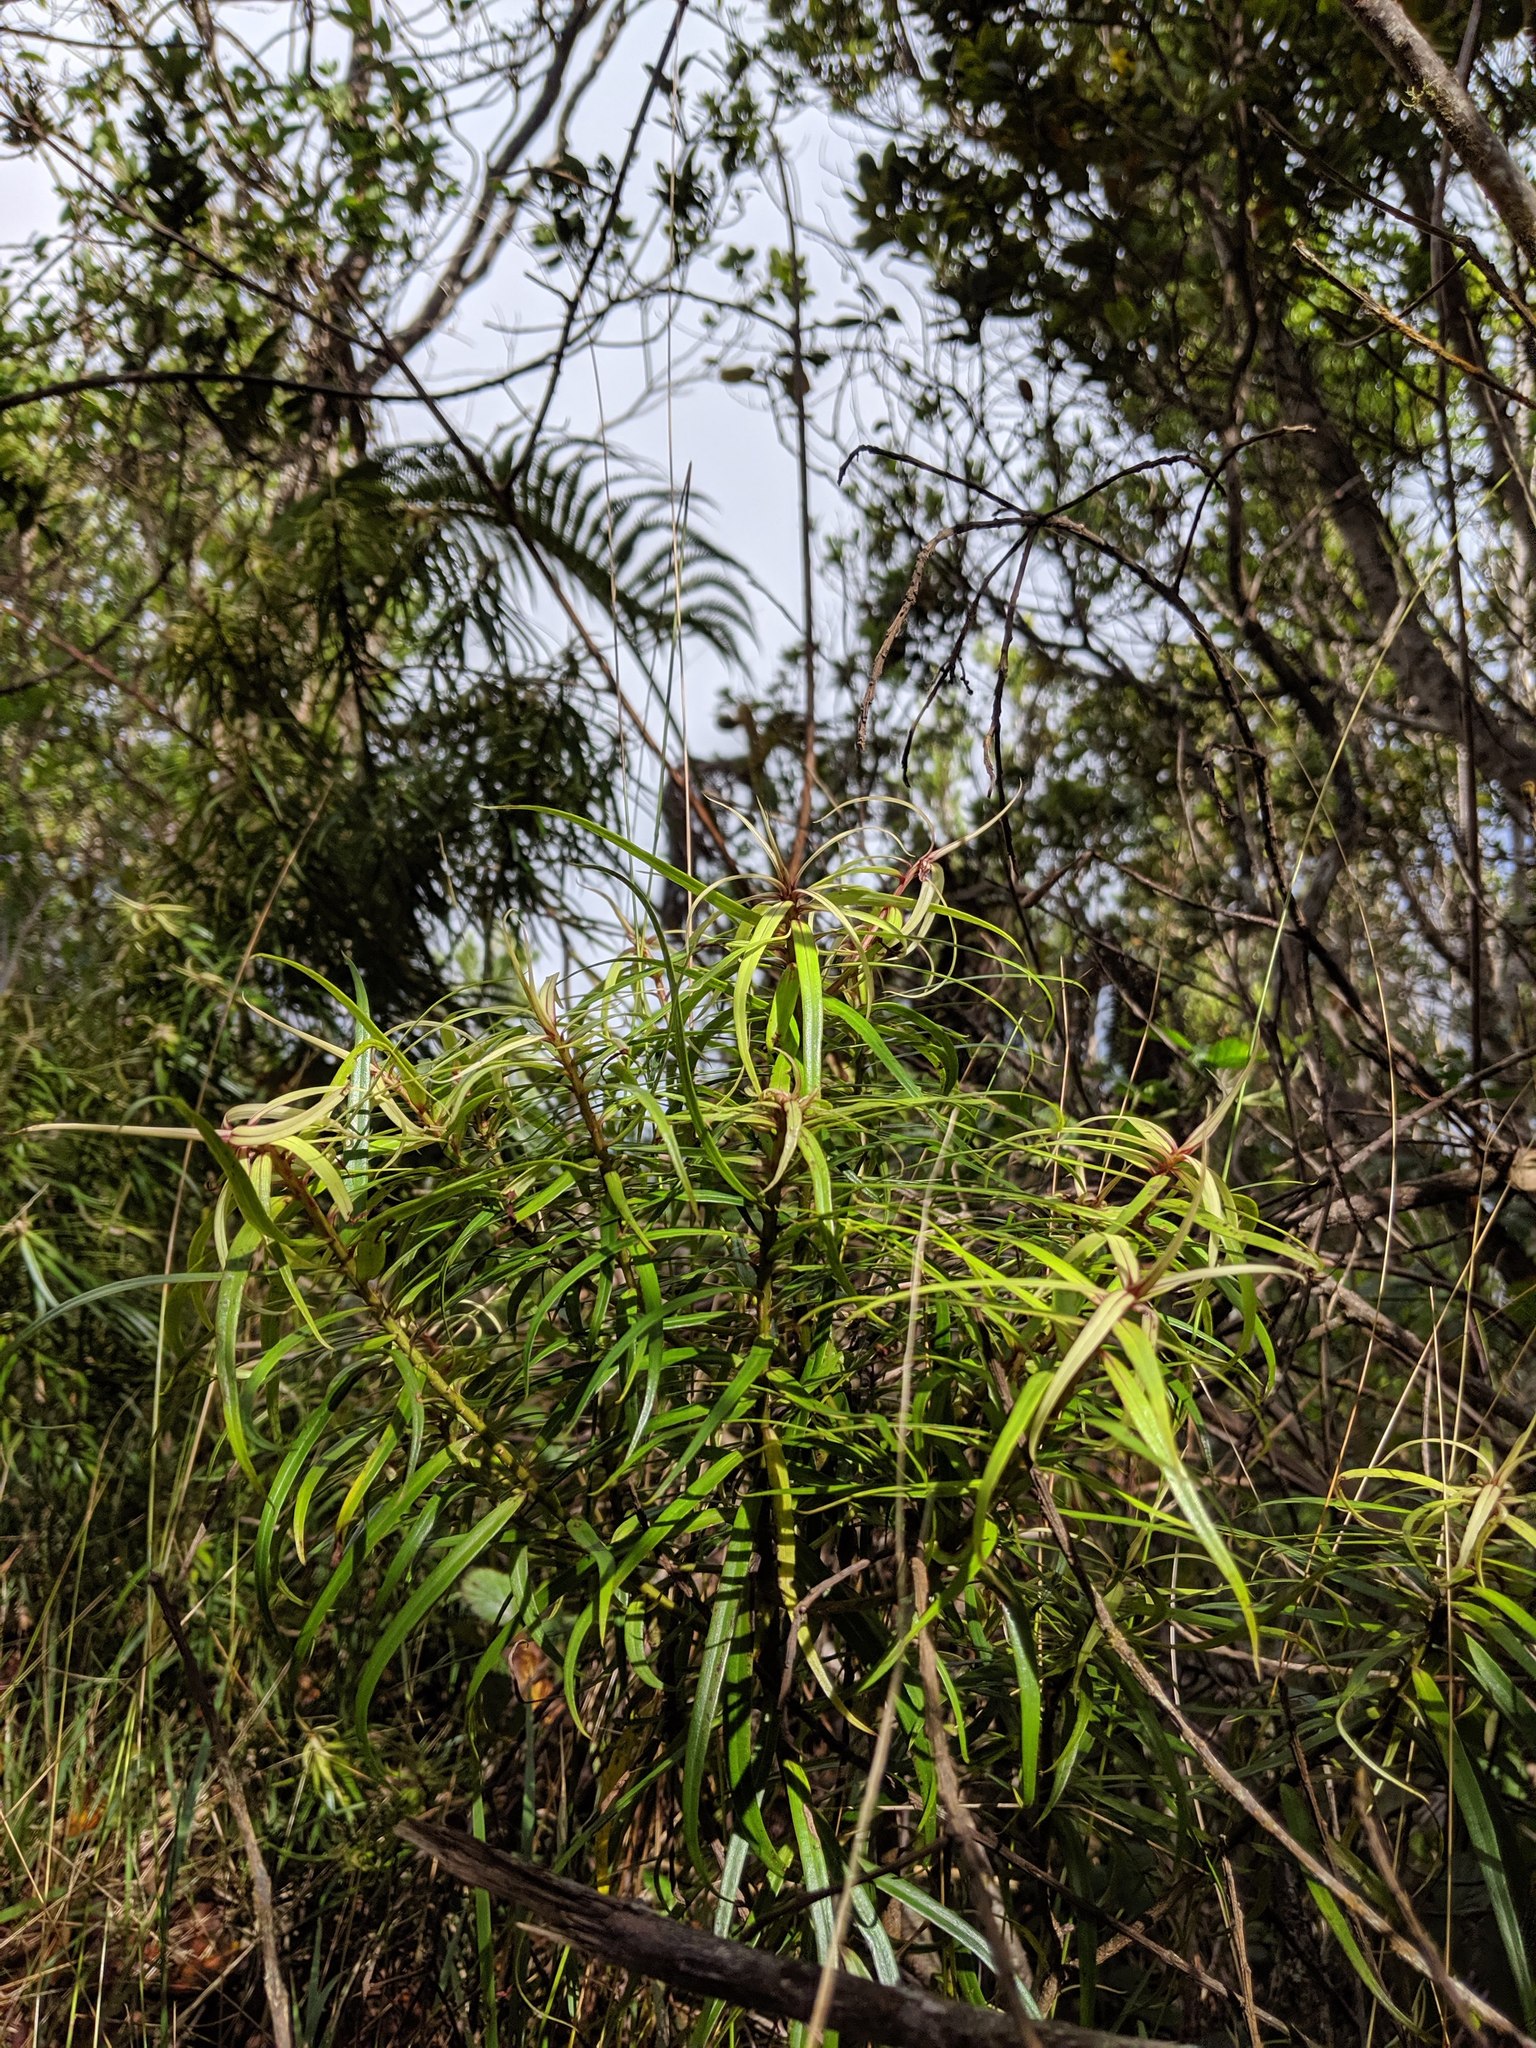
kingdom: Plantae
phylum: Tracheophyta
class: Magnoliopsida
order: Ericales
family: Primulaceae
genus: Myrsine
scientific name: Myrsine linearifolia
